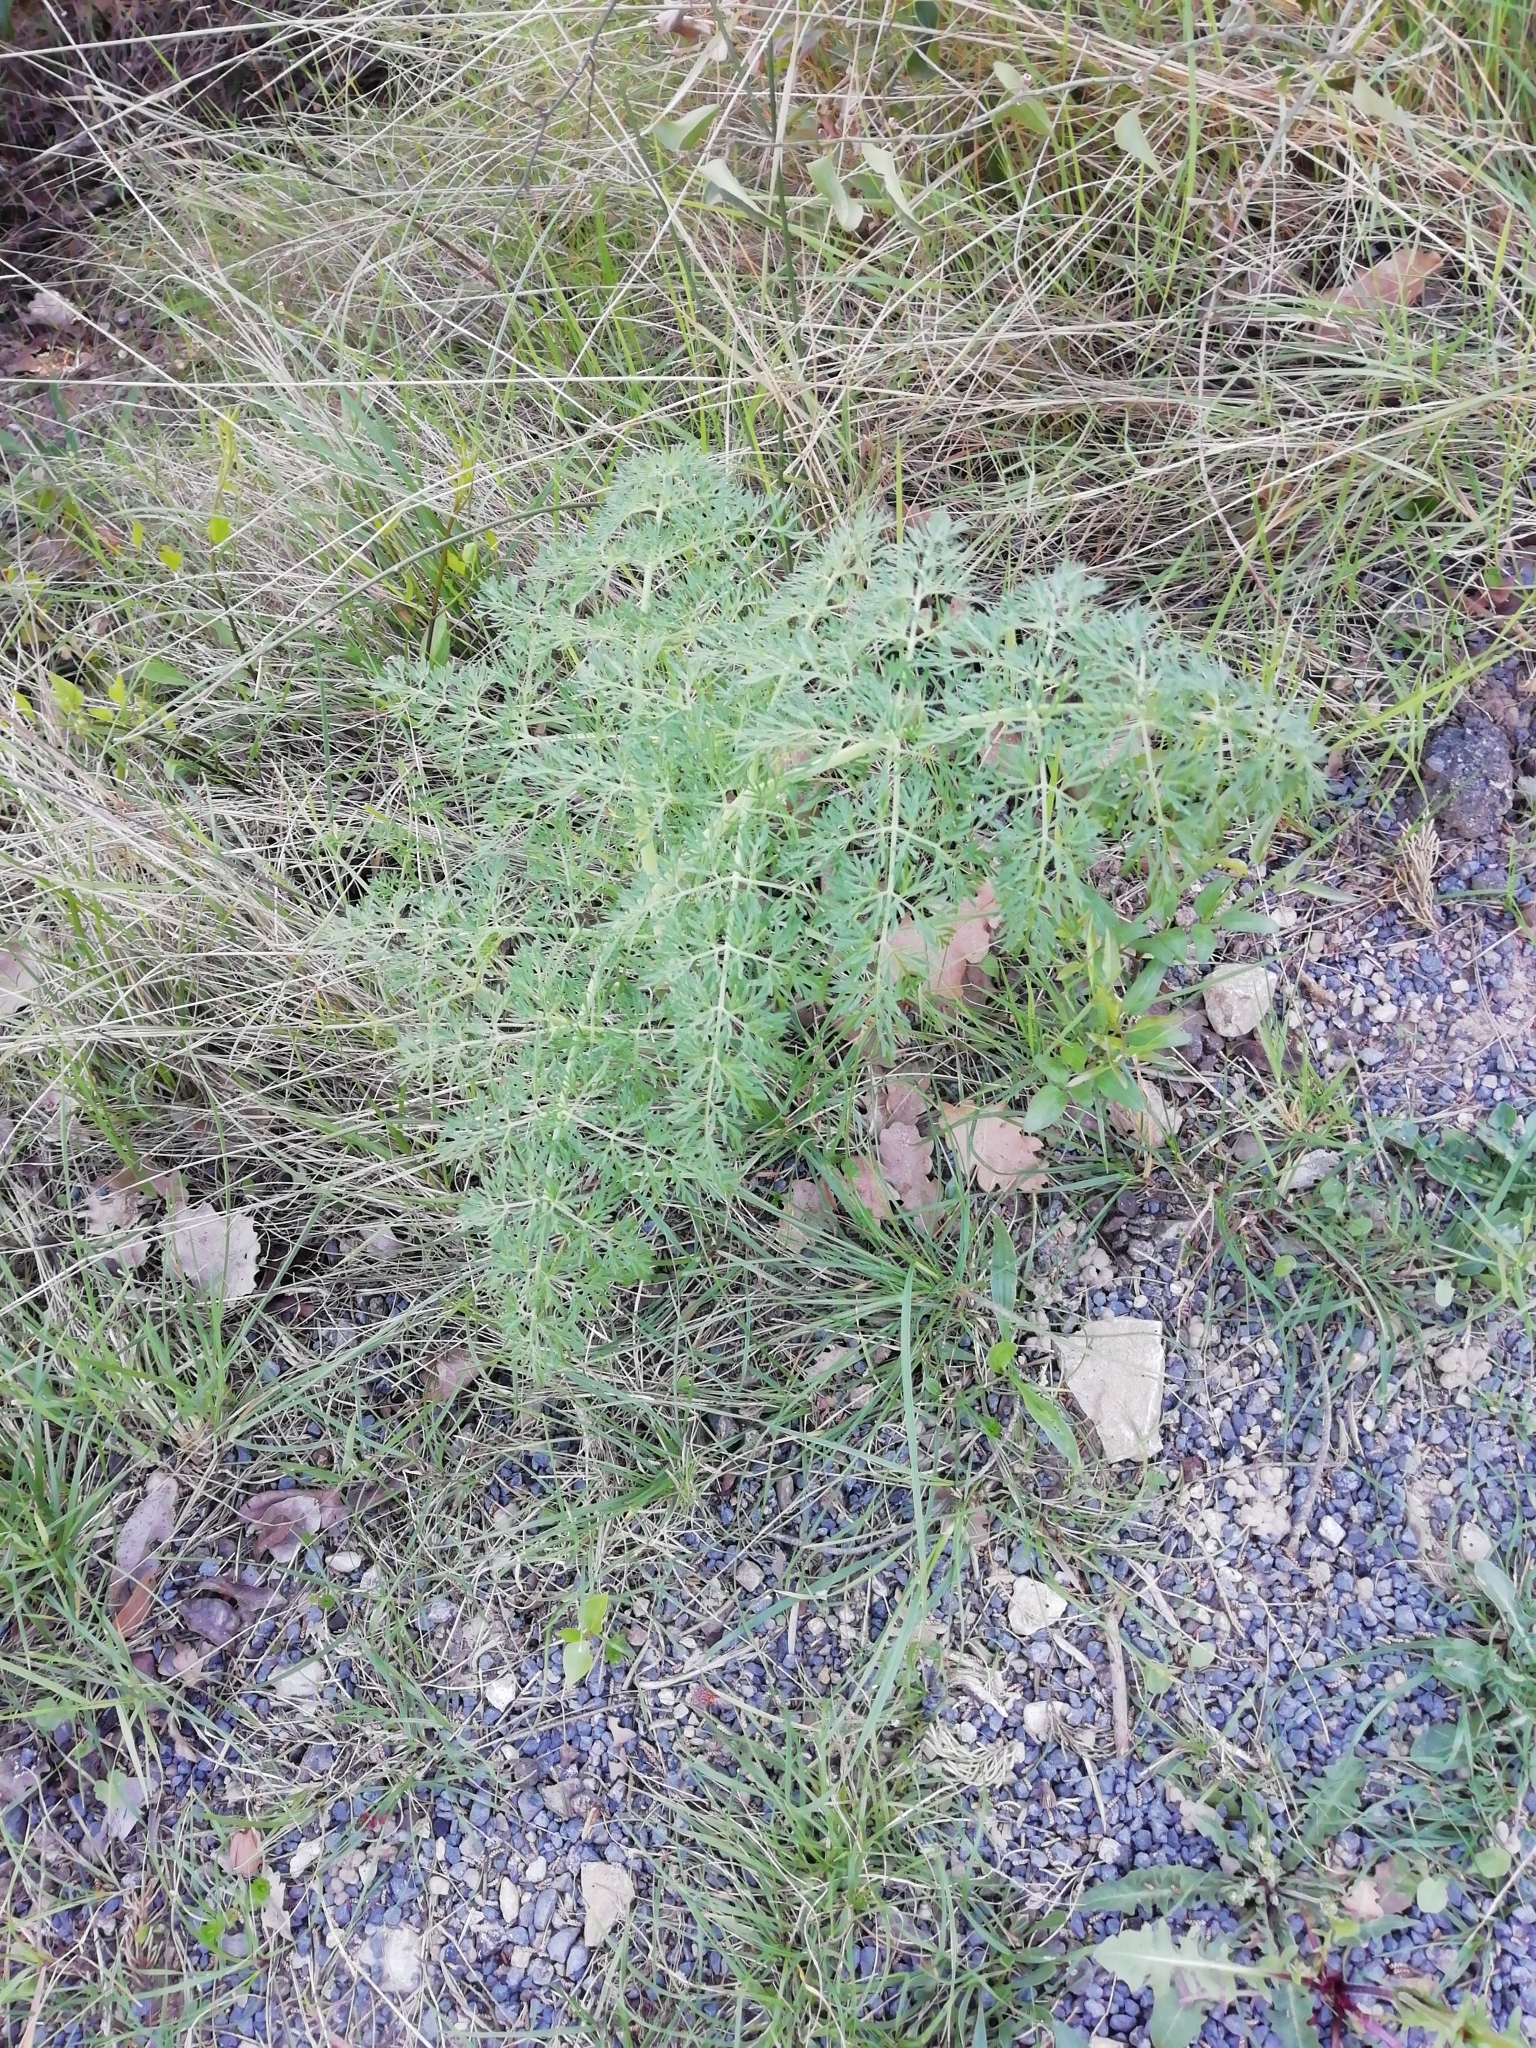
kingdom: Plantae
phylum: Tracheophyta
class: Magnoliopsida
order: Apiales
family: Apiaceae
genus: Ferula
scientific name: Ferula glauca
